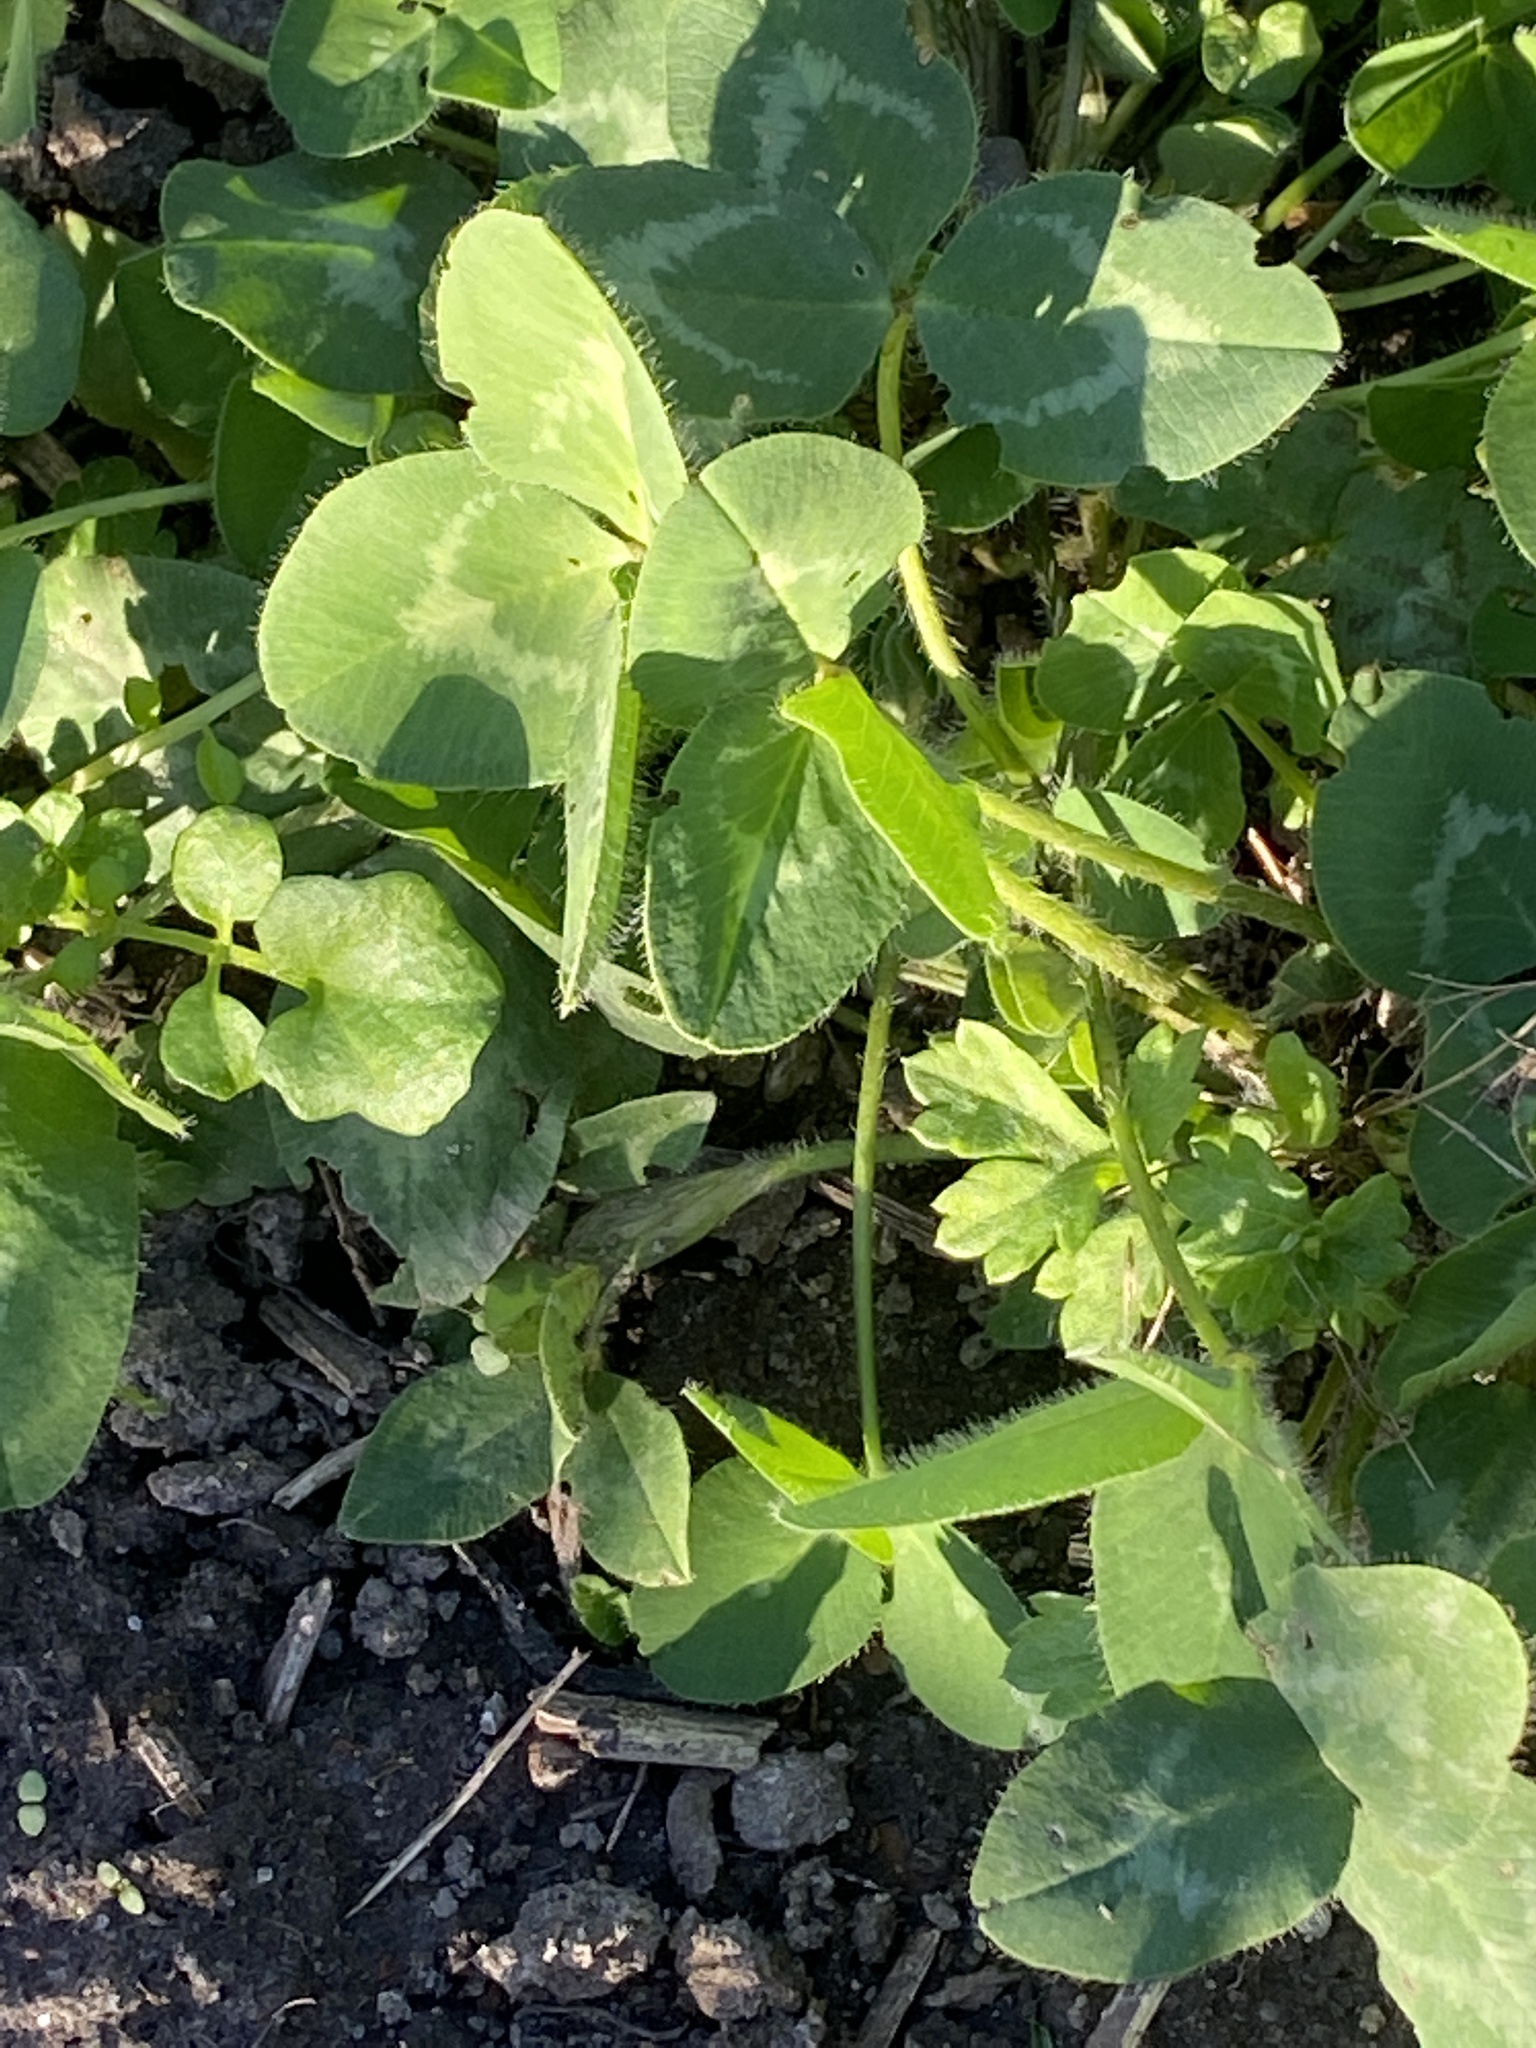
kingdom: Plantae
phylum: Tracheophyta
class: Magnoliopsida
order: Fabales
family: Fabaceae
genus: Trifolium
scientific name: Trifolium pratense
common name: Red clover
